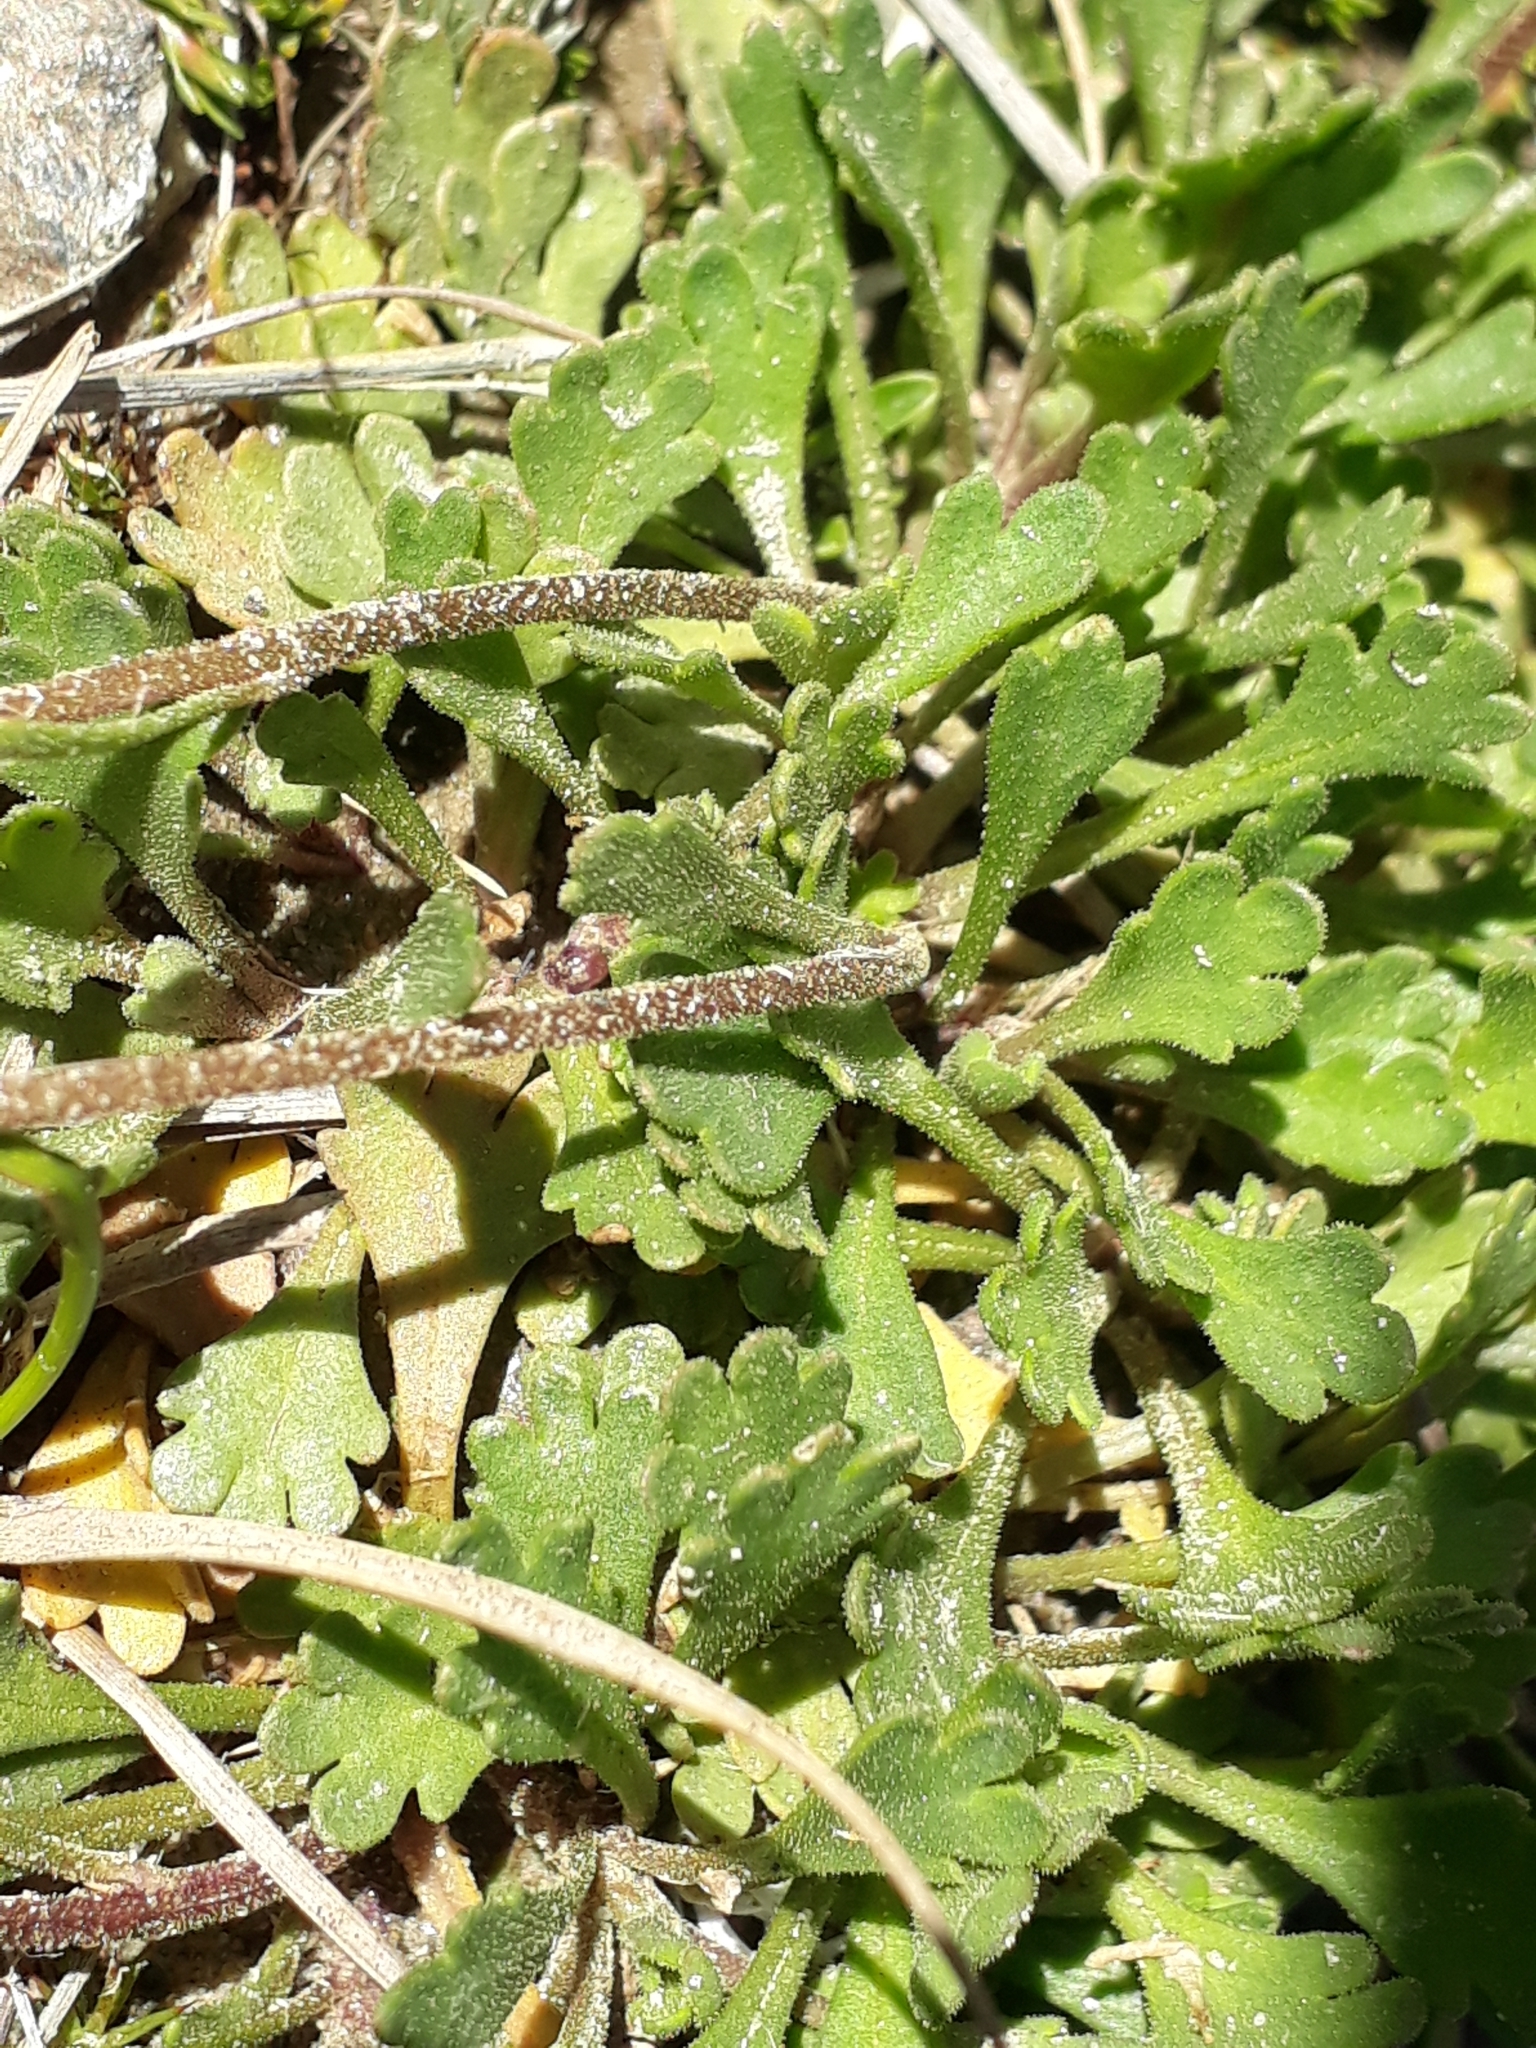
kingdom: Plantae
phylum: Tracheophyta
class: Magnoliopsida
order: Asterales
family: Asteraceae
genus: Brachyscome
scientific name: Brachyscome montana
